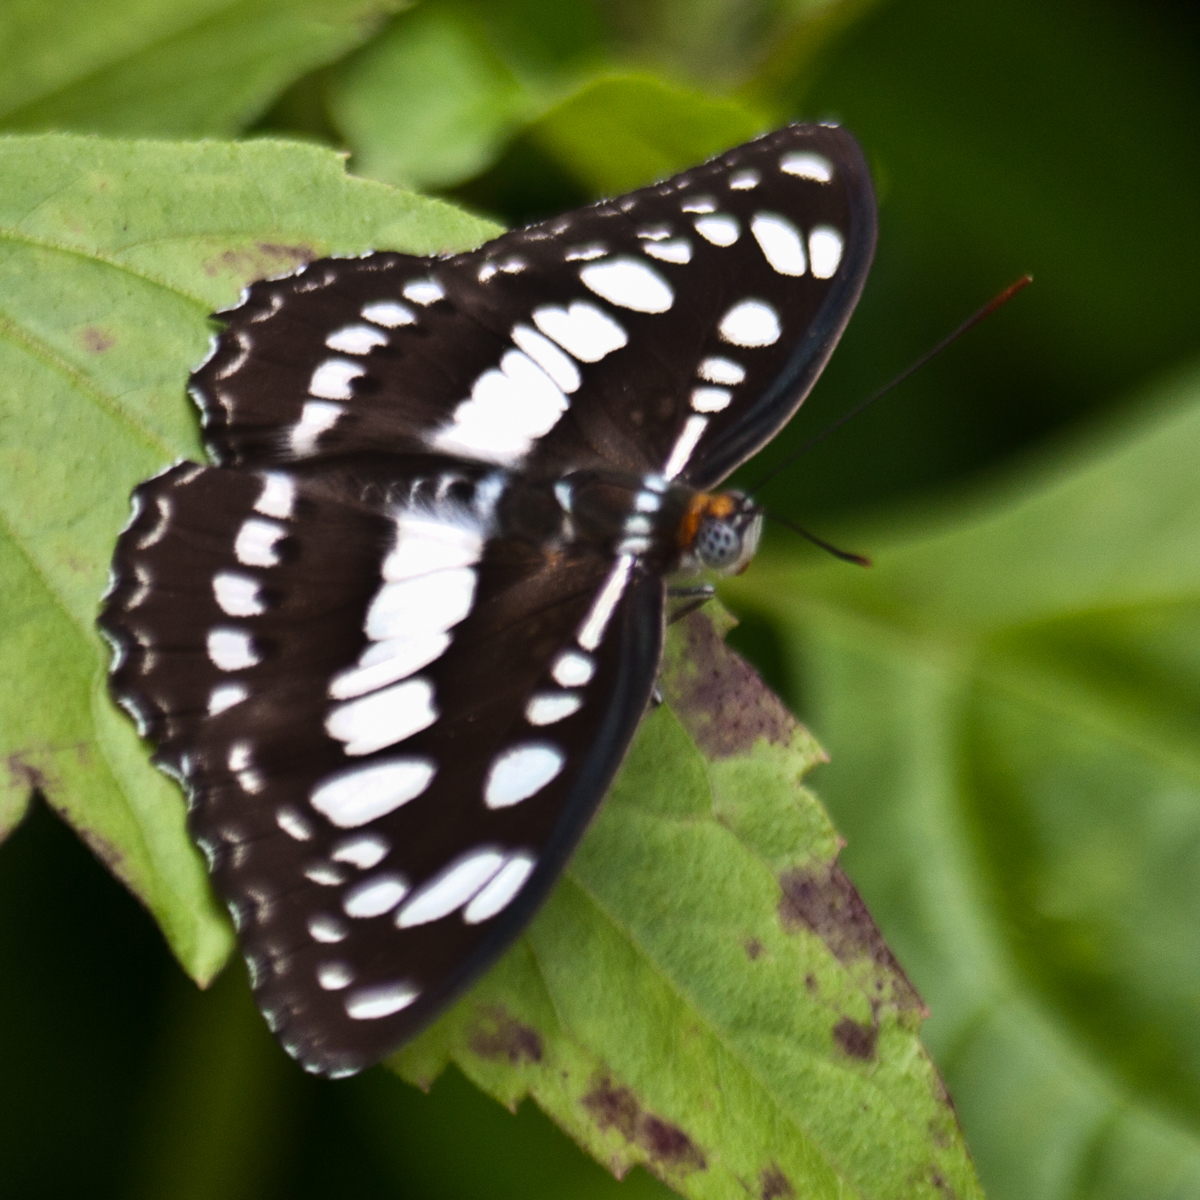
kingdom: Animalia
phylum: Arthropoda
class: Insecta
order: Lepidoptera
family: Nymphalidae
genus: Parathyma
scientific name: Parathyma perius
